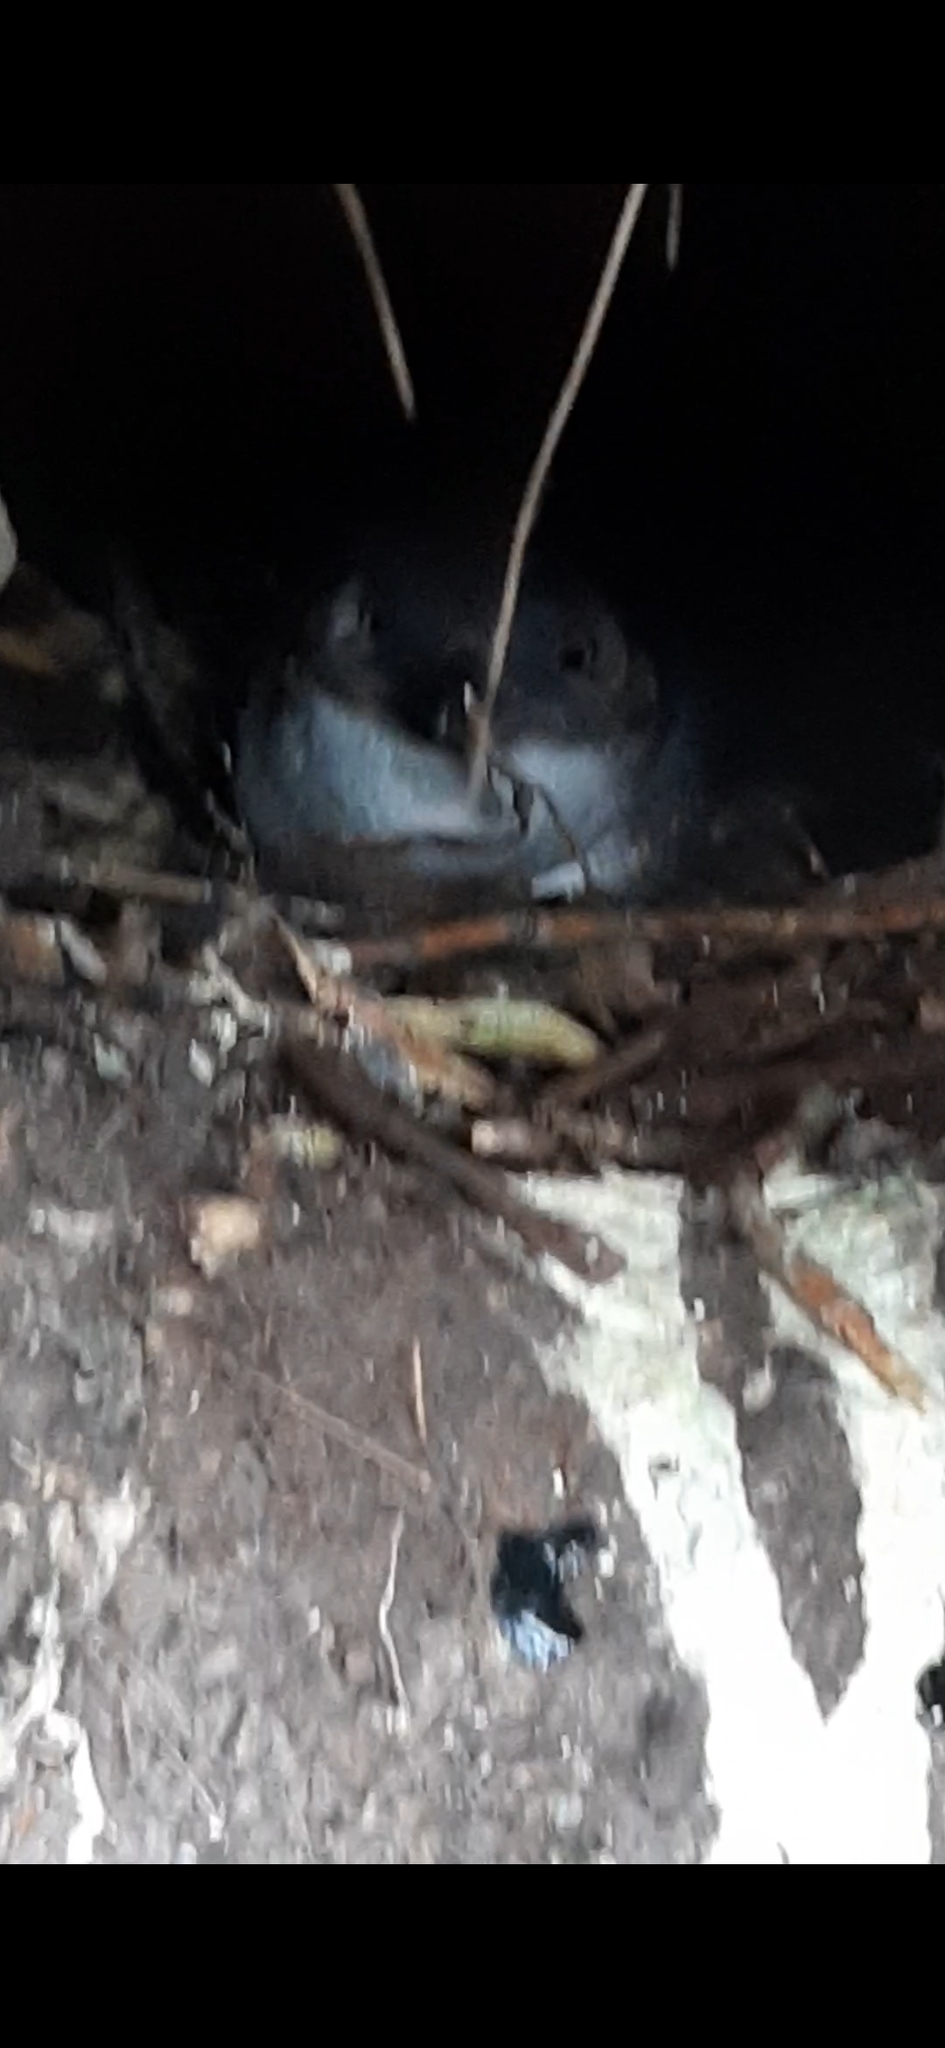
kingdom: Animalia
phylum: Chordata
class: Aves
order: Sphenisciformes
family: Spheniscidae
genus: Eudyptula
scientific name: Eudyptula minor
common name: Little penguin
